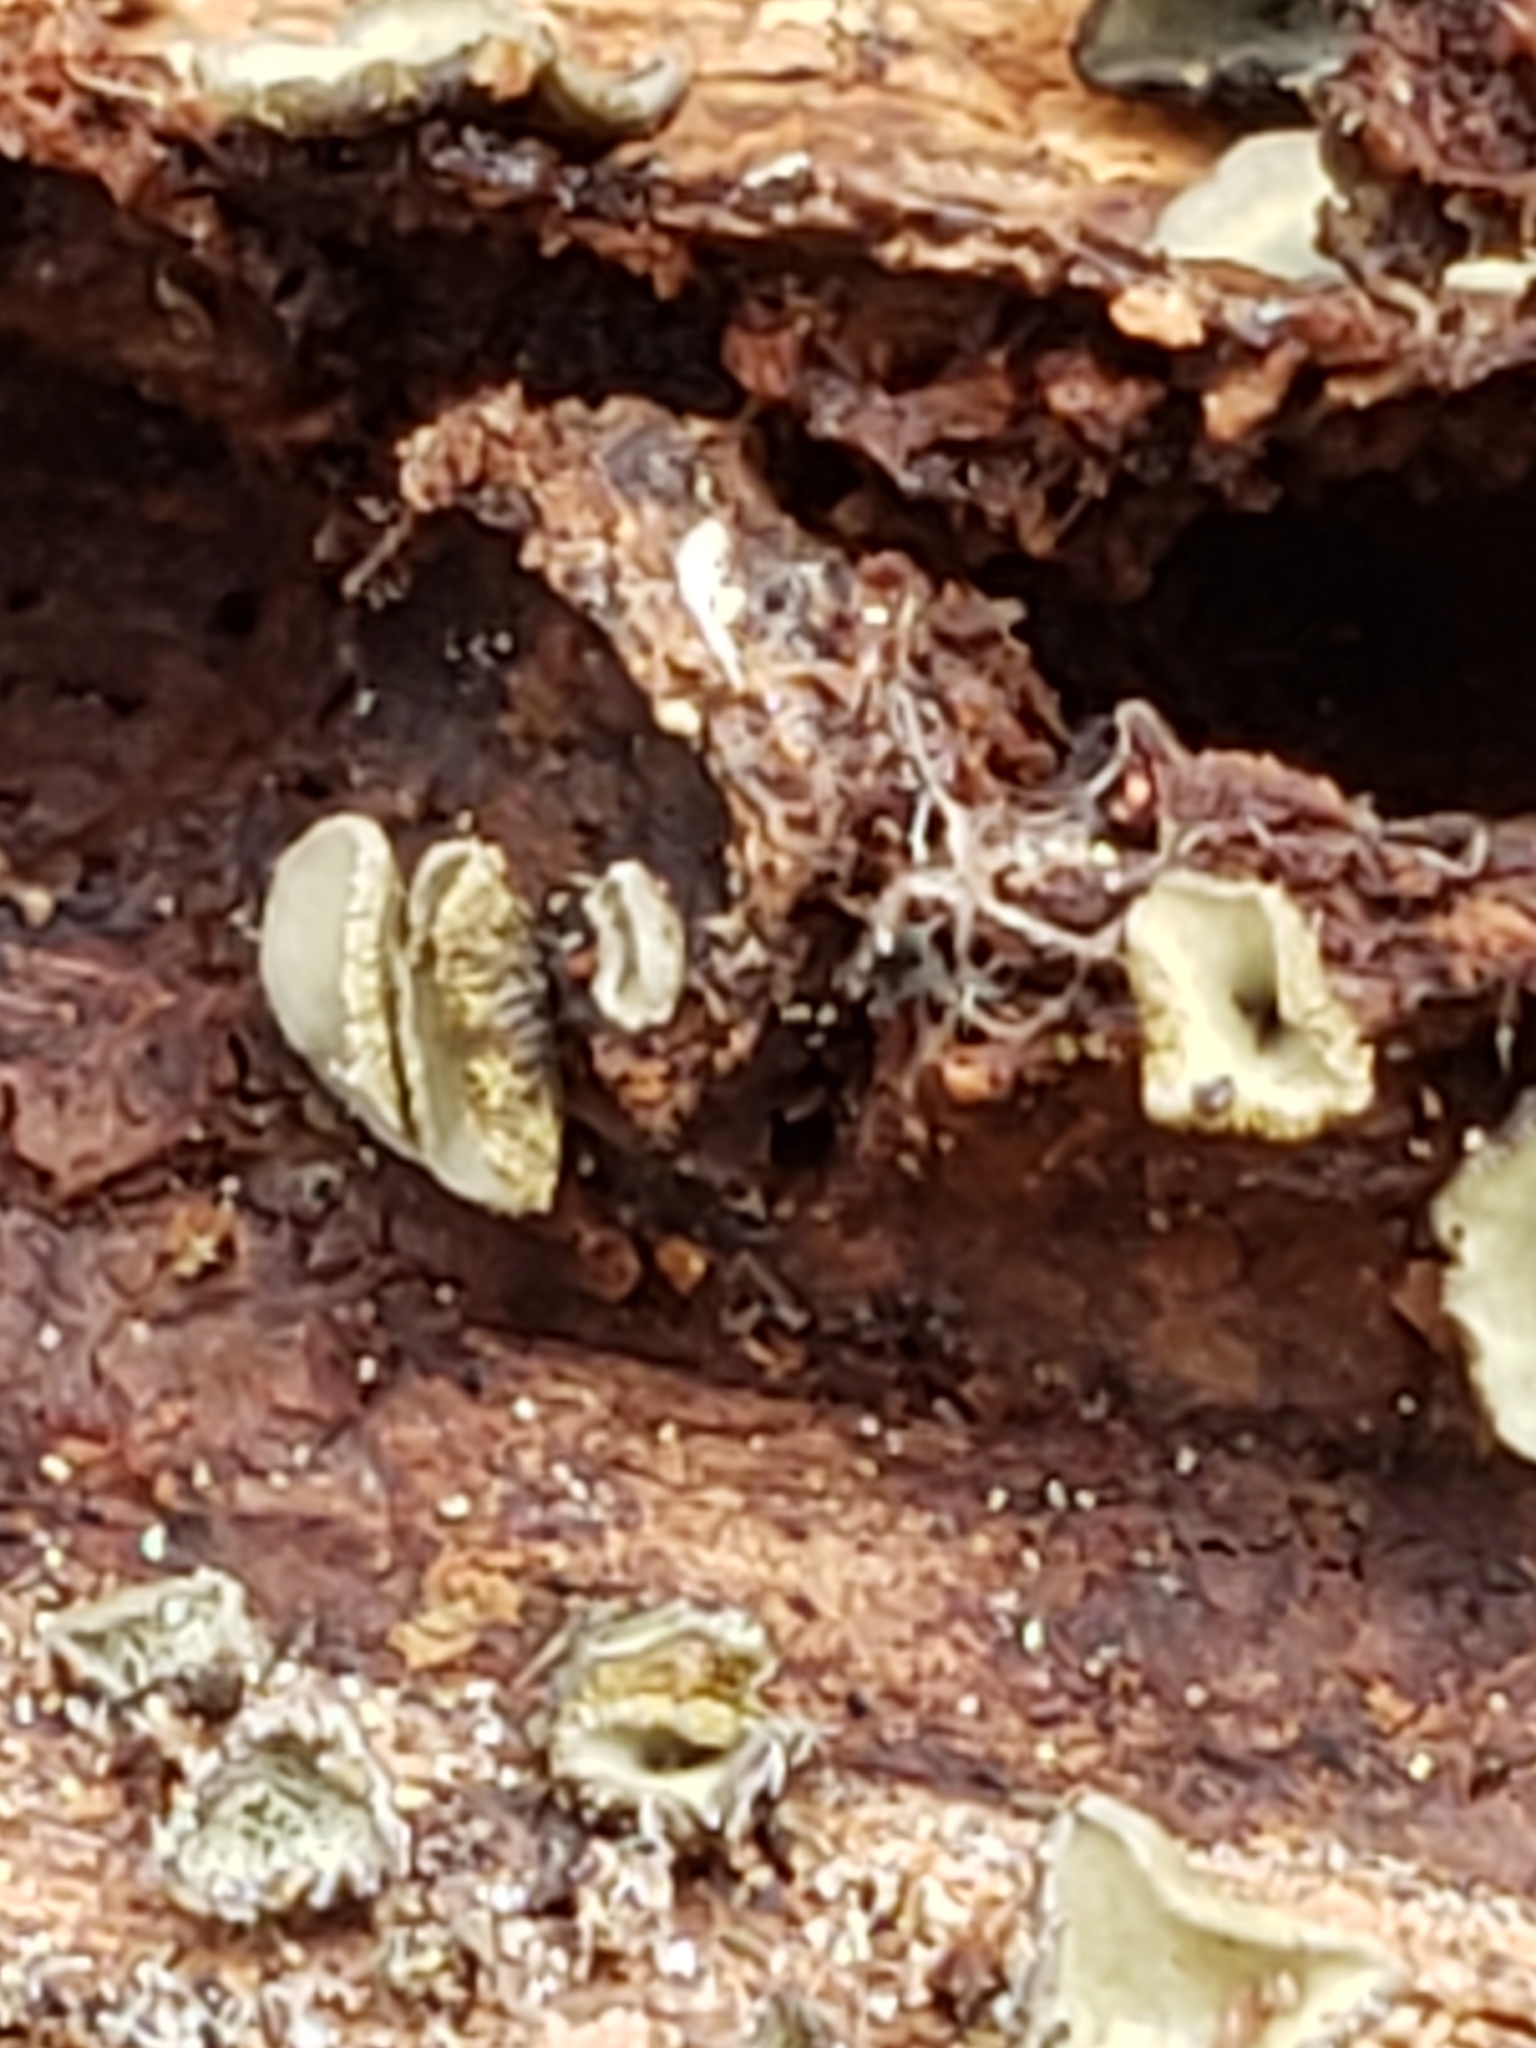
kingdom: Fungi
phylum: Ascomycota
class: Leotiomycetes
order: Helotiales
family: Chlorospleniaceae
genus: Chlorosplenium
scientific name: Chlorosplenium chlora
